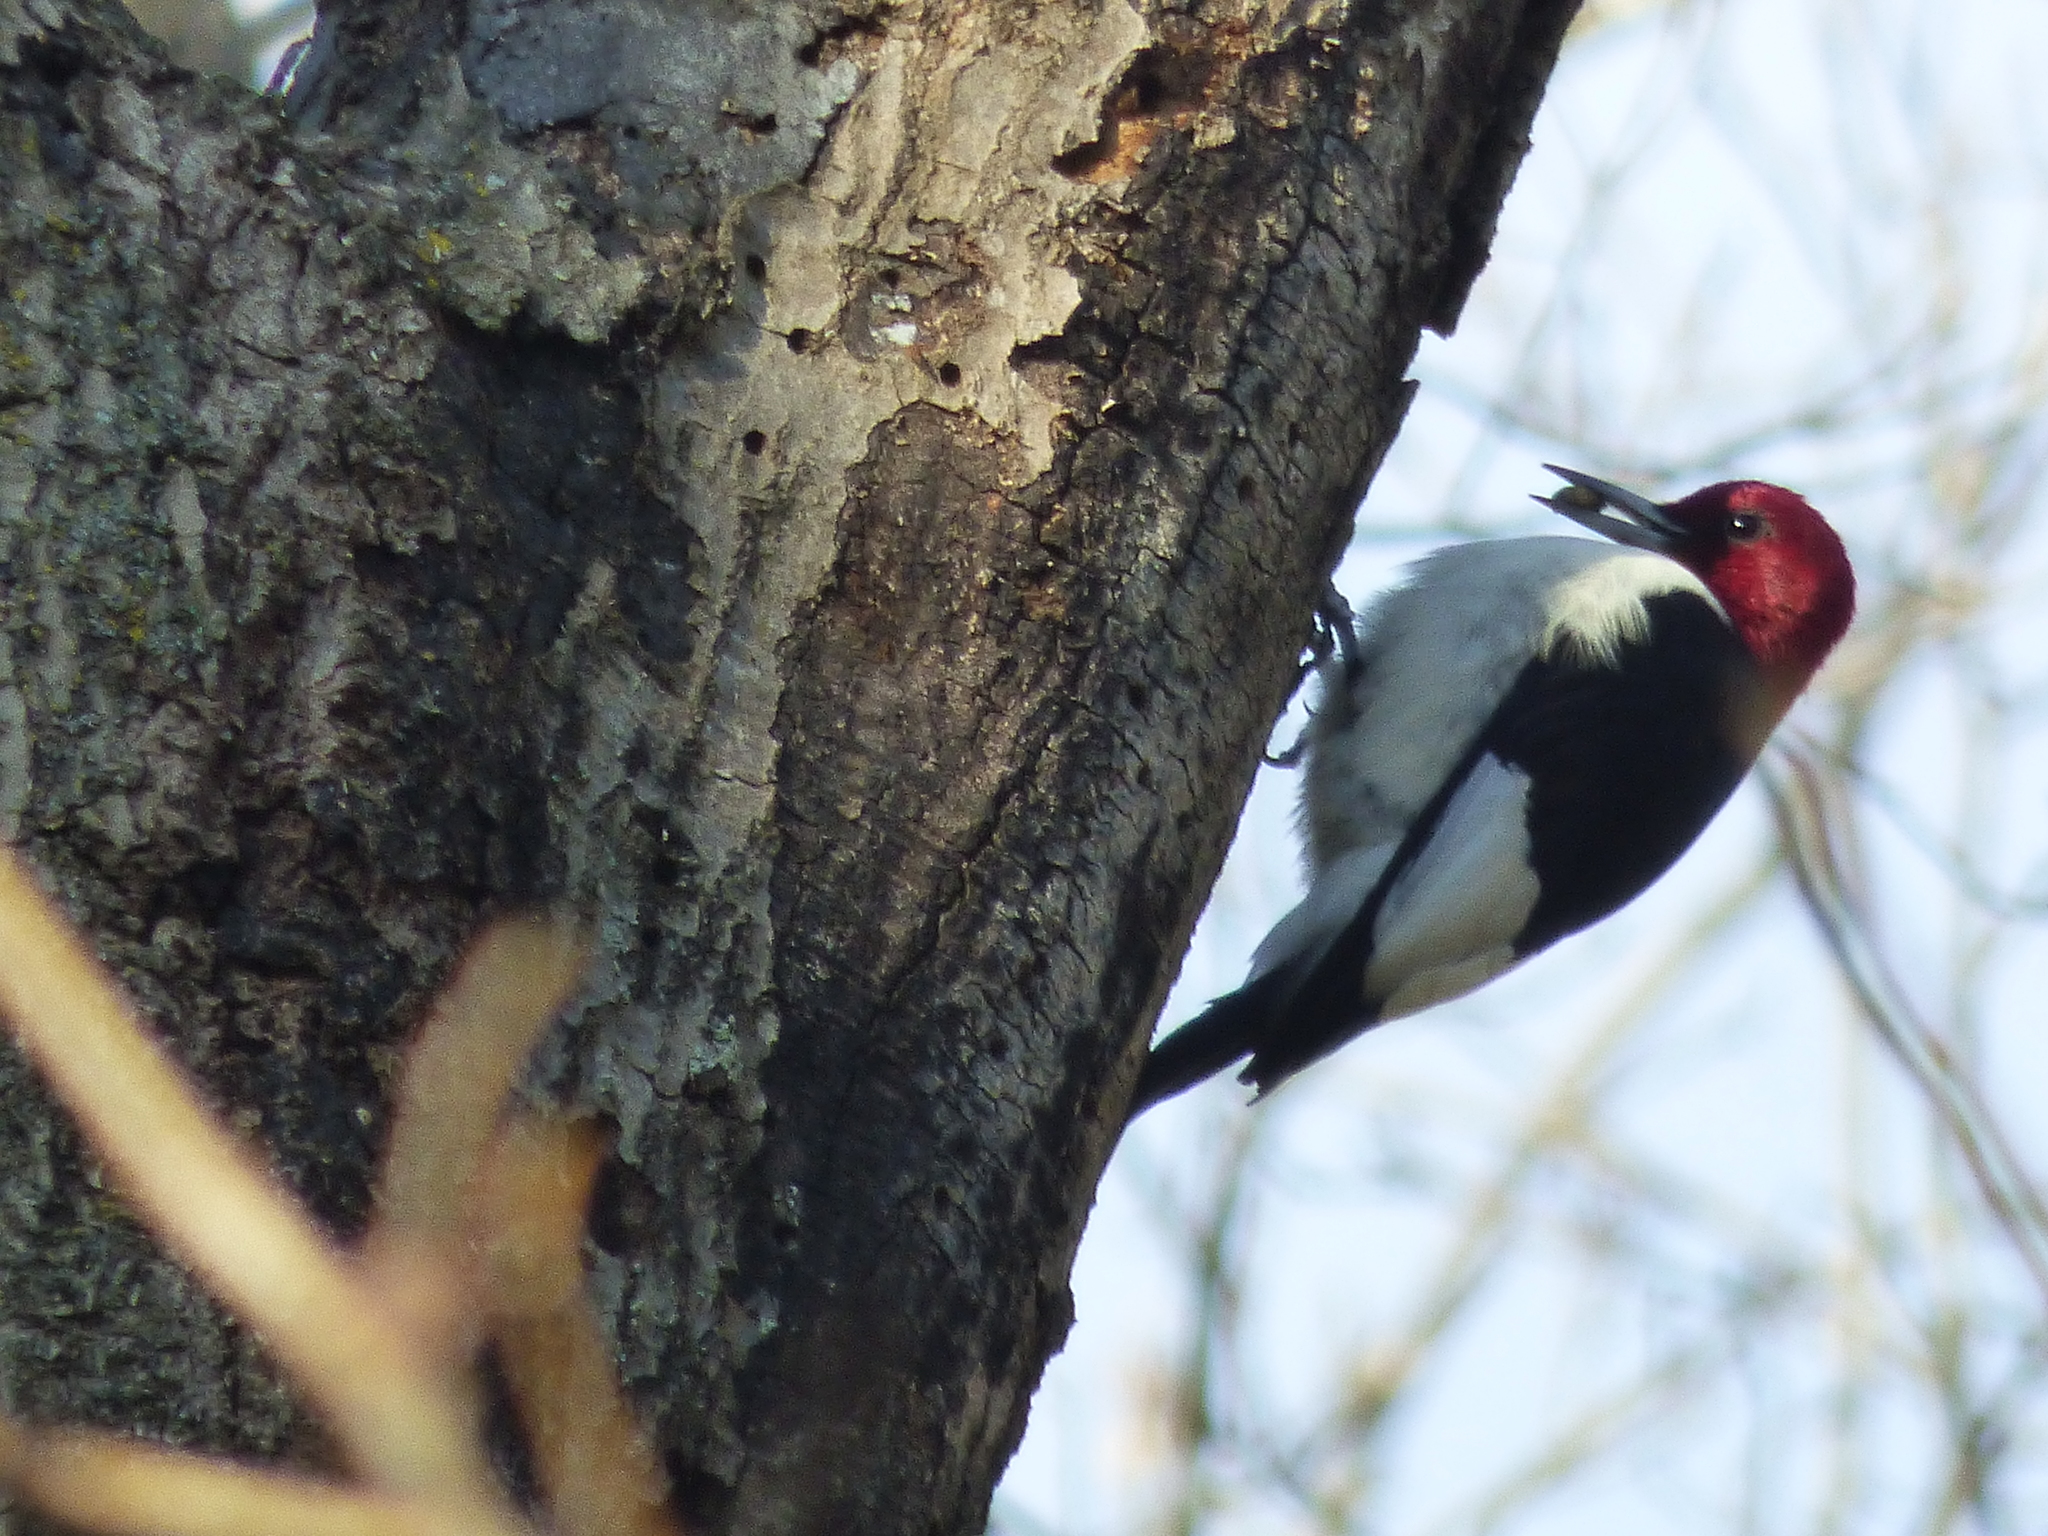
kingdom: Animalia
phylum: Chordata
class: Aves
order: Piciformes
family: Picidae
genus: Melanerpes
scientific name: Melanerpes erythrocephalus
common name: Red-headed woodpecker
